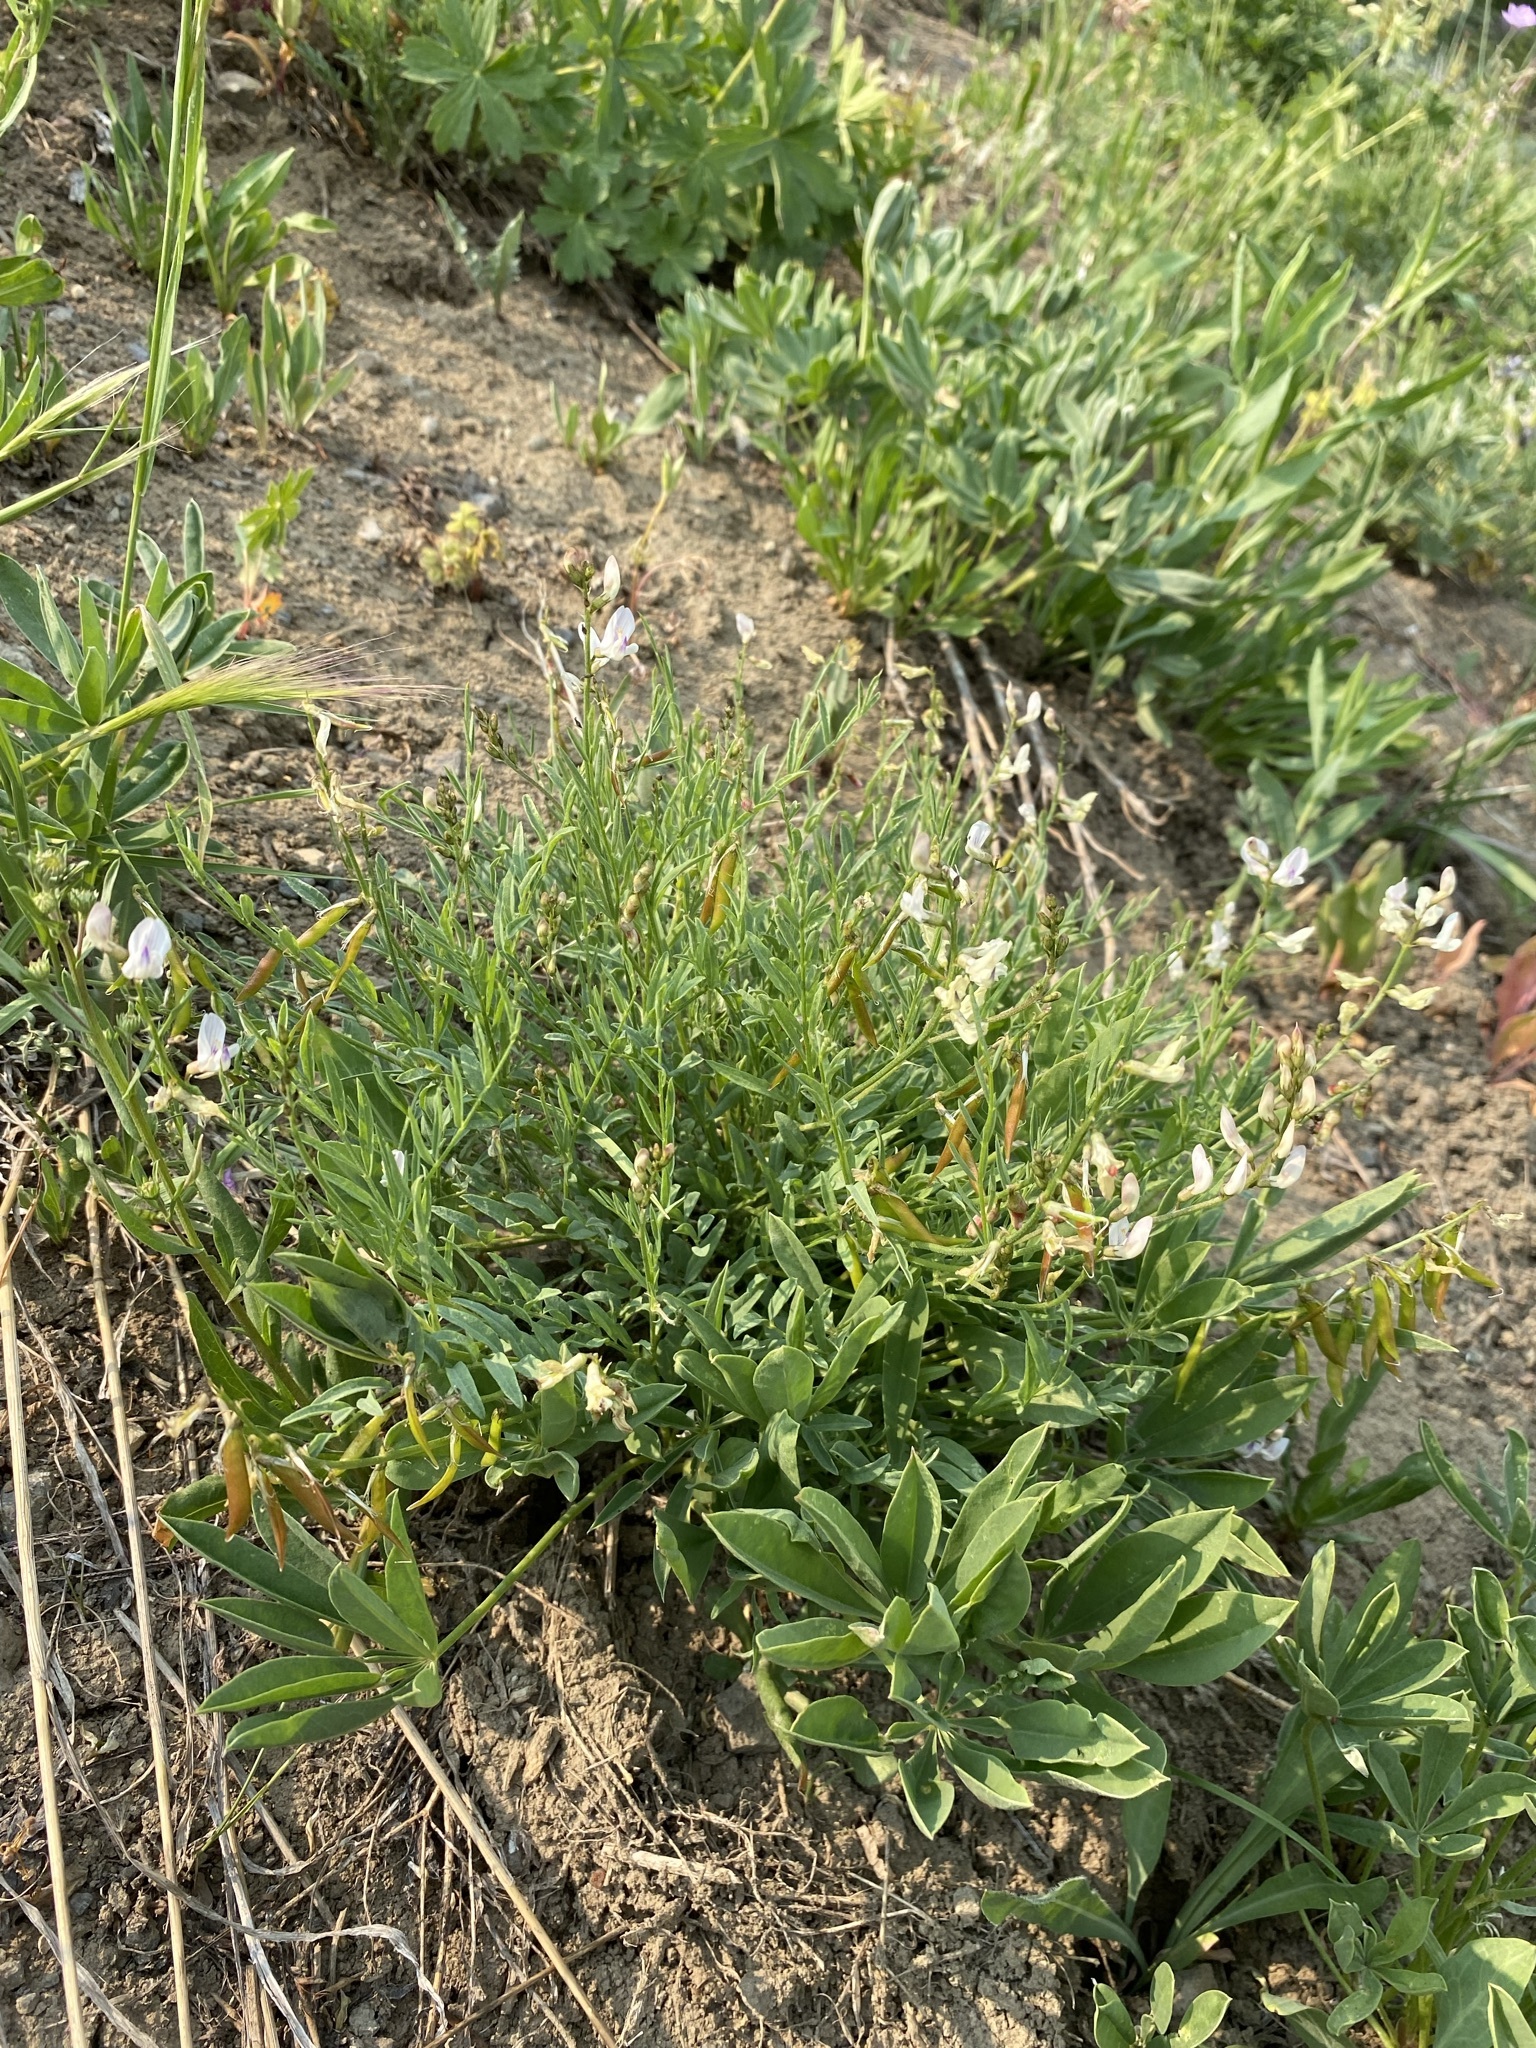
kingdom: Plantae
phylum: Tracheophyta
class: Magnoliopsida
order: Fabales
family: Fabaceae
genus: Astragalus
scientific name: Astragalus miser
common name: Timber milkvetch
